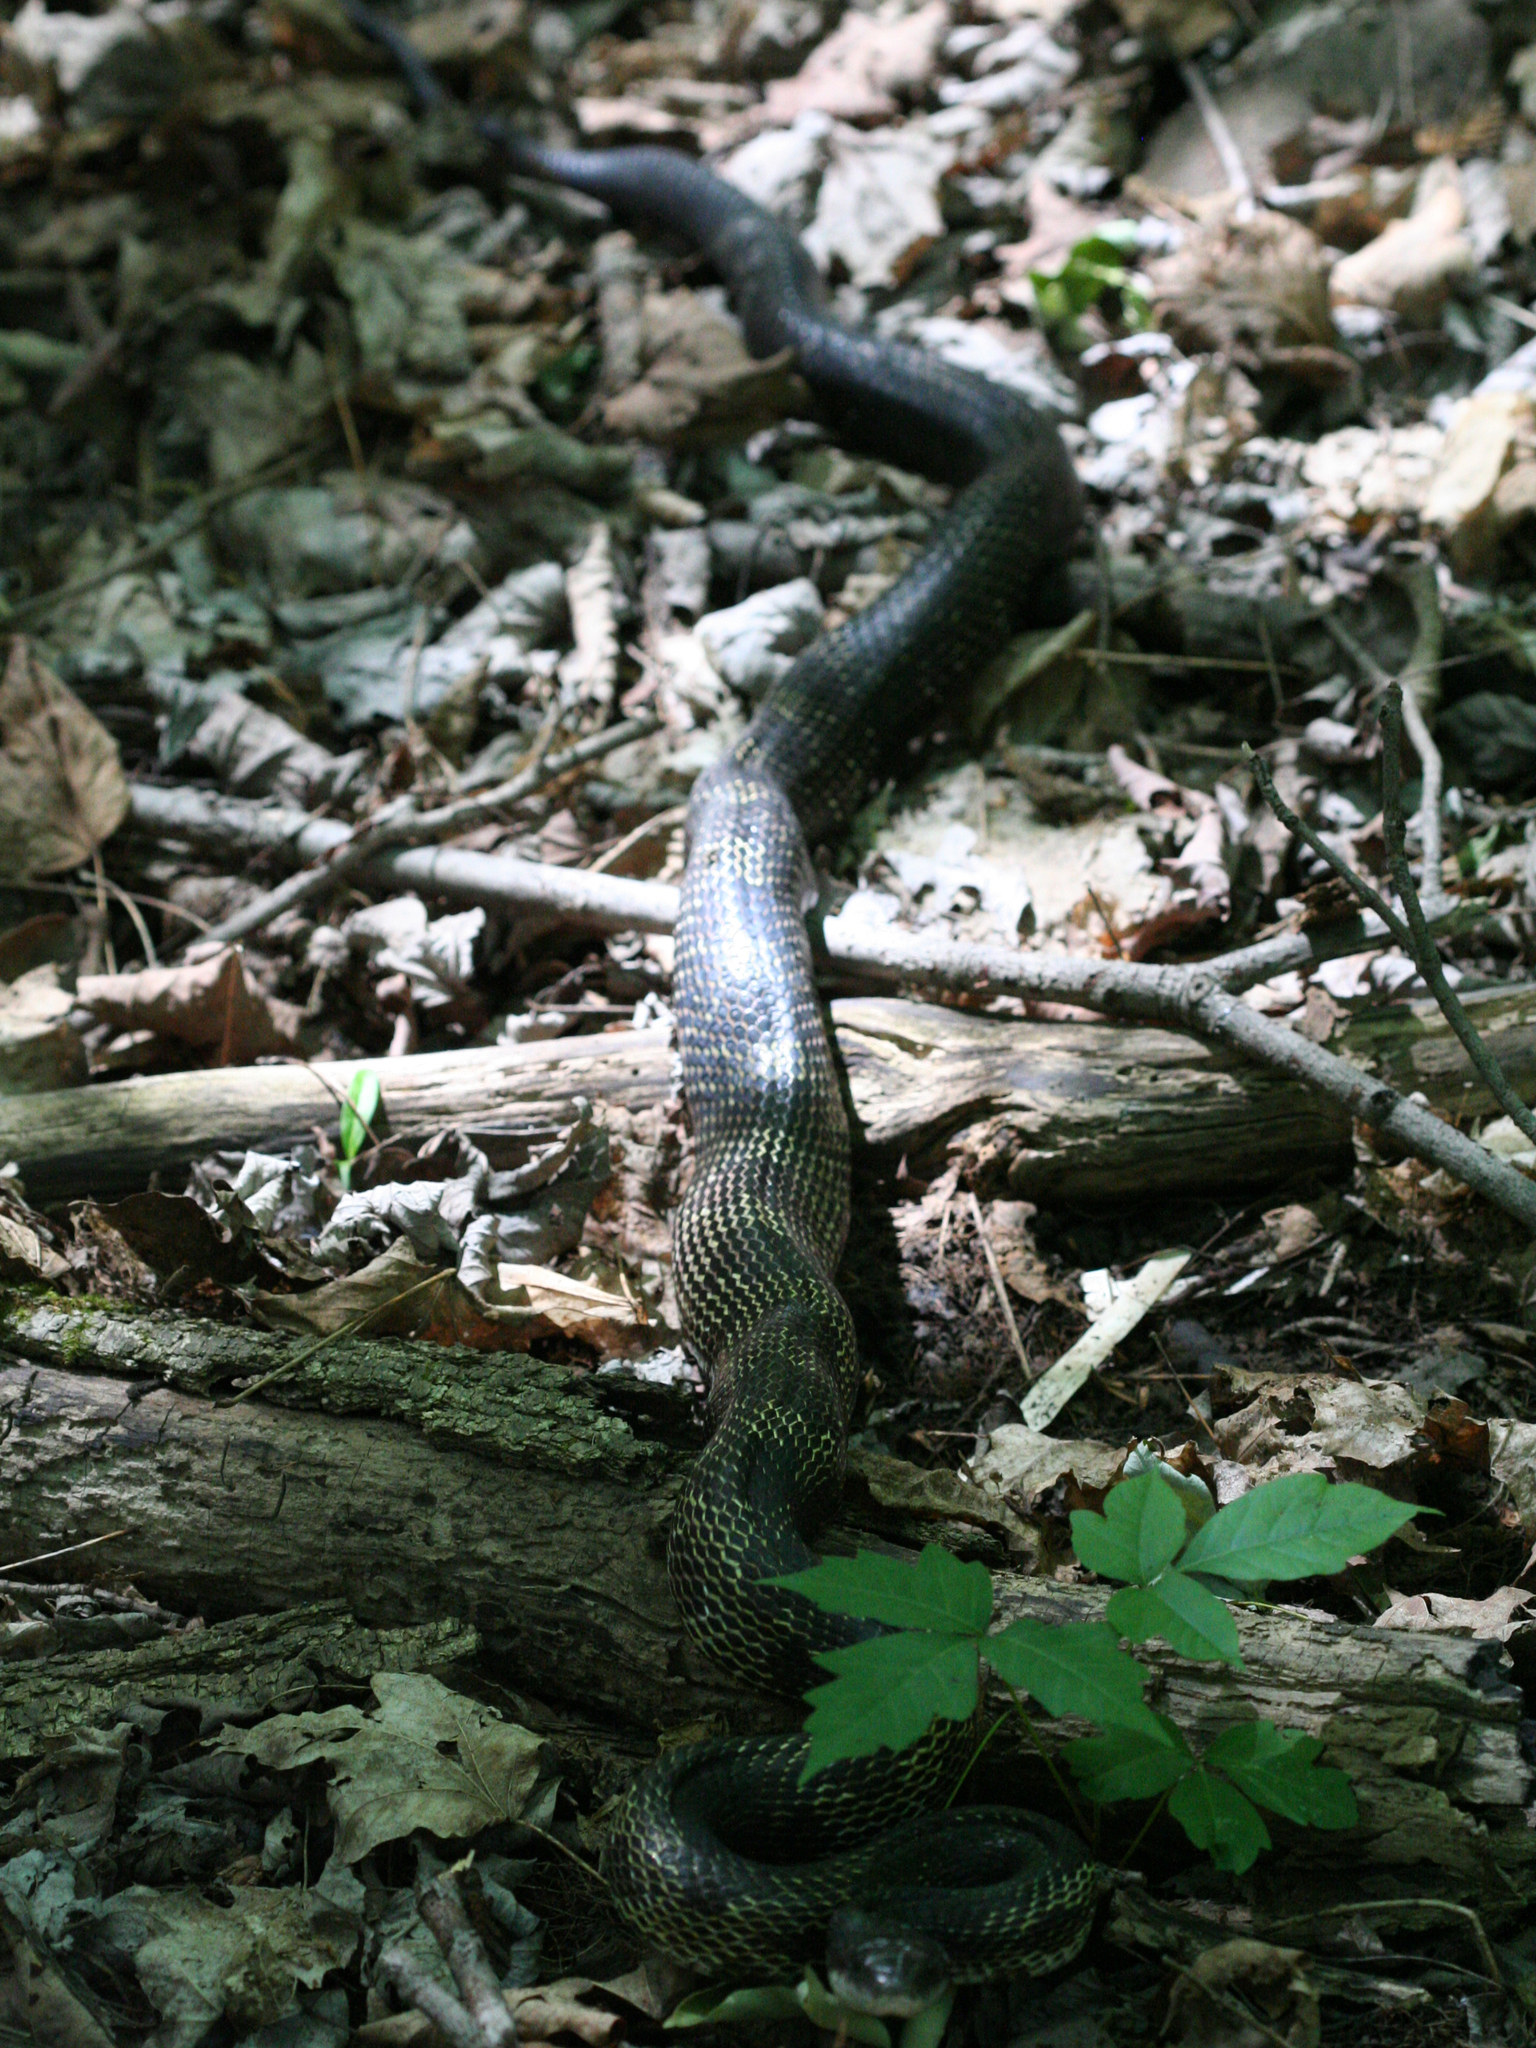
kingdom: Animalia
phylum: Chordata
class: Squamata
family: Colubridae
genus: Pantherophis
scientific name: Pantherophis spiloides
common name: Gray rat snake
